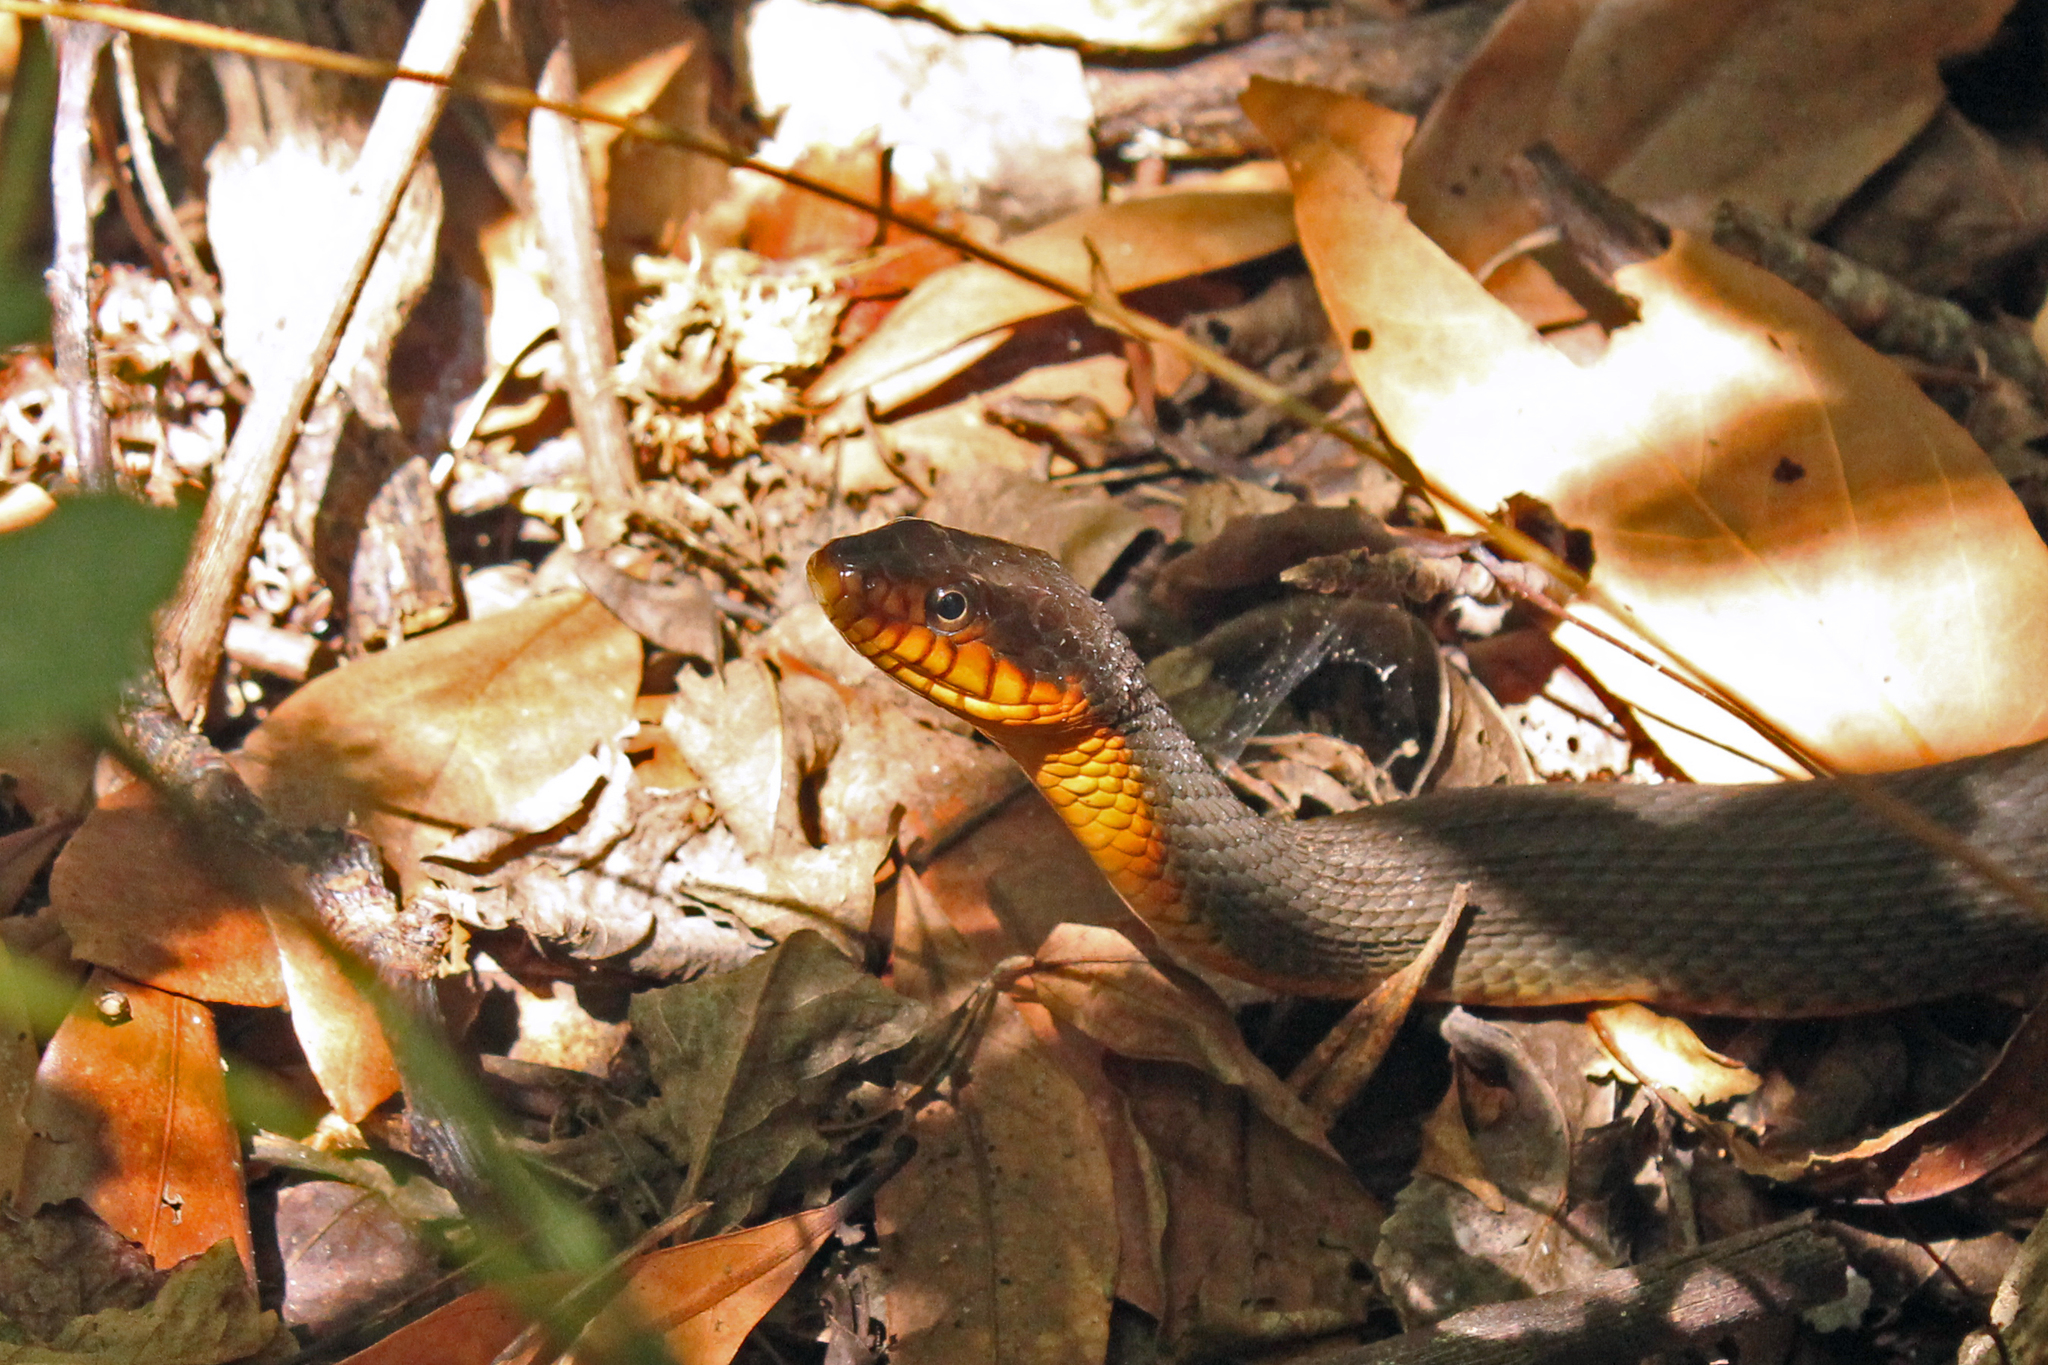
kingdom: Animalia
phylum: Chordata
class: Squamata
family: Colubridae
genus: Nerodia
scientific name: Nerodia erythrogaster
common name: Plainbelly water snake
